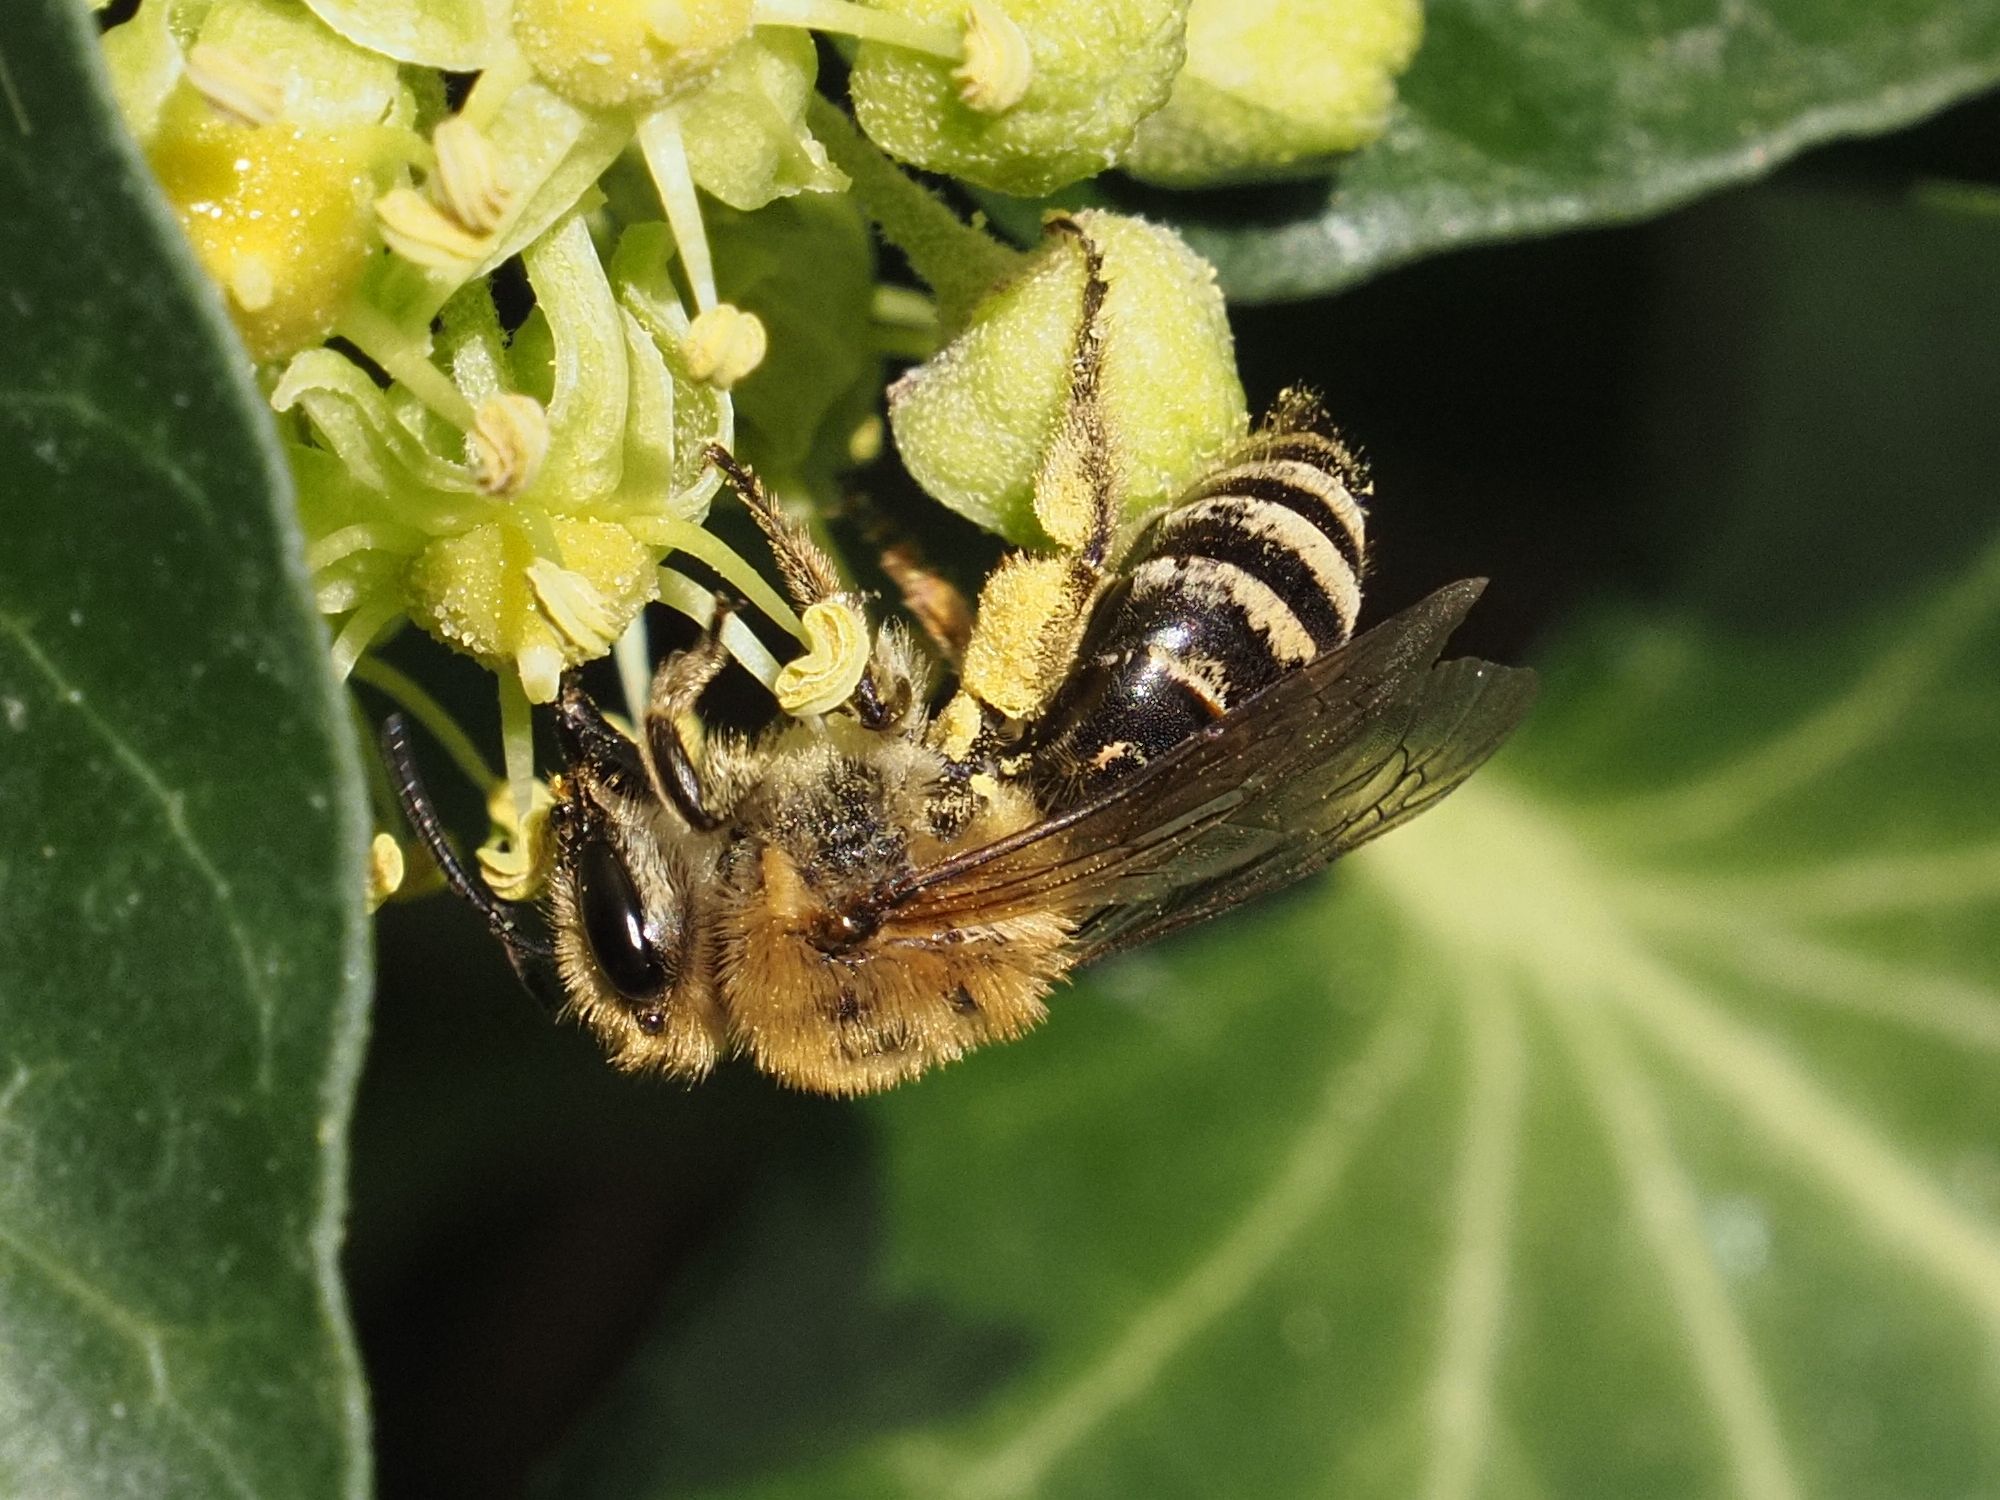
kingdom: Animalia
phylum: Arthropoda
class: Insecta
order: Hymenoptera
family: Colletidae
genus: Colletes
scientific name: Colletes hederae
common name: Ivy bee
